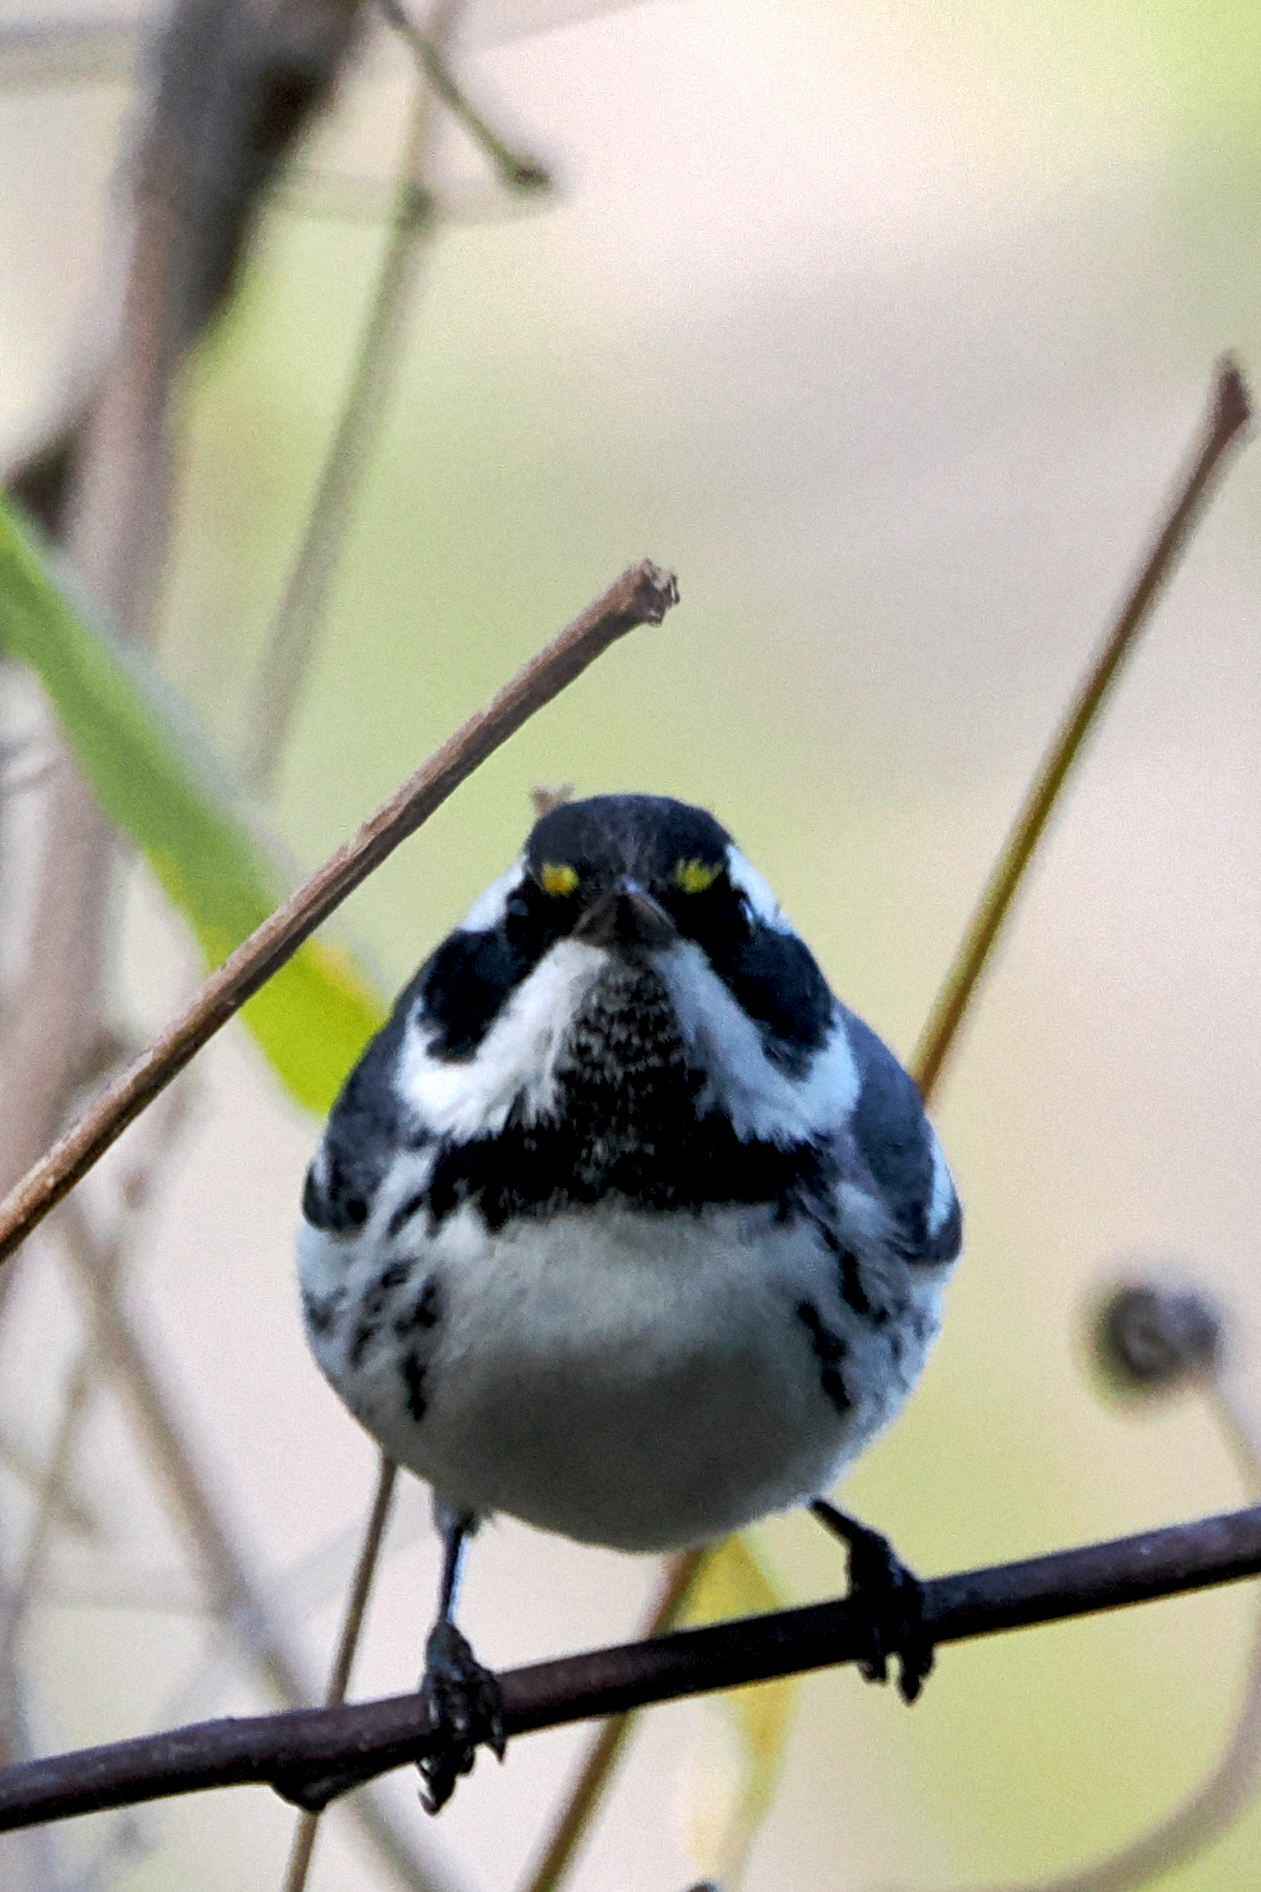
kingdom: Animalia
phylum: Chordata
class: Aves
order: Passeriformes
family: Parulidae
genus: Setophaga
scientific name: Setophaga nigrescens
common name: Black-throated gray warbler
